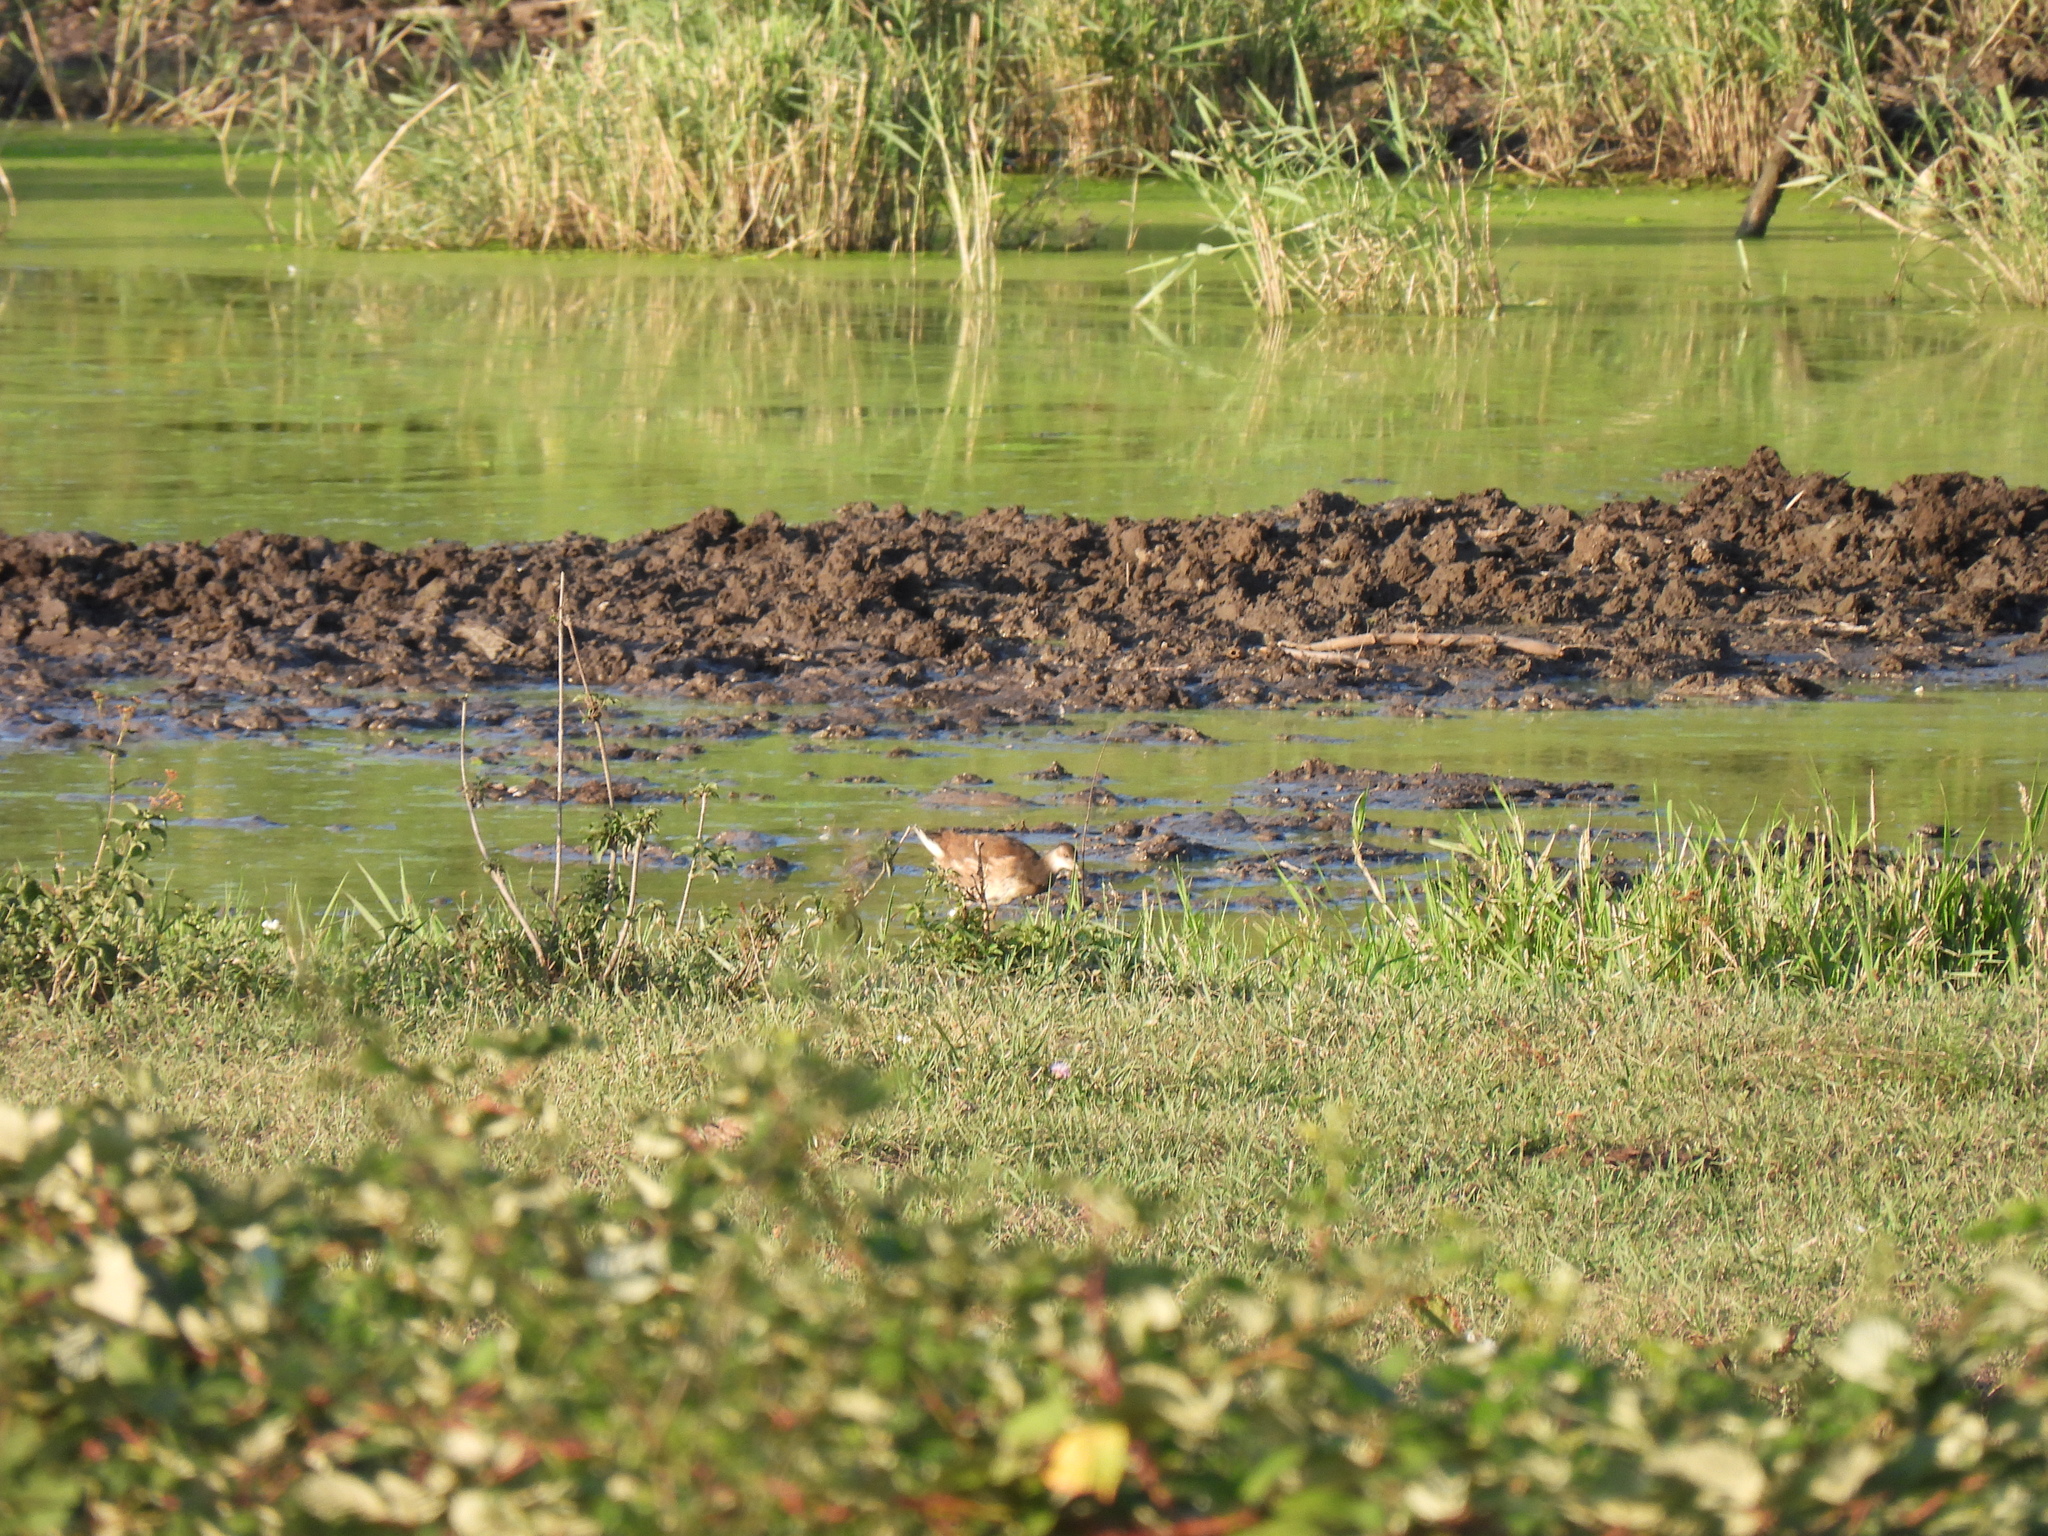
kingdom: Animalia
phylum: Chordata
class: Aves
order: Gruiformes
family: Rallidae
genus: Gallinula
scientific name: Gallinula chloropus
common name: Common moorhen
